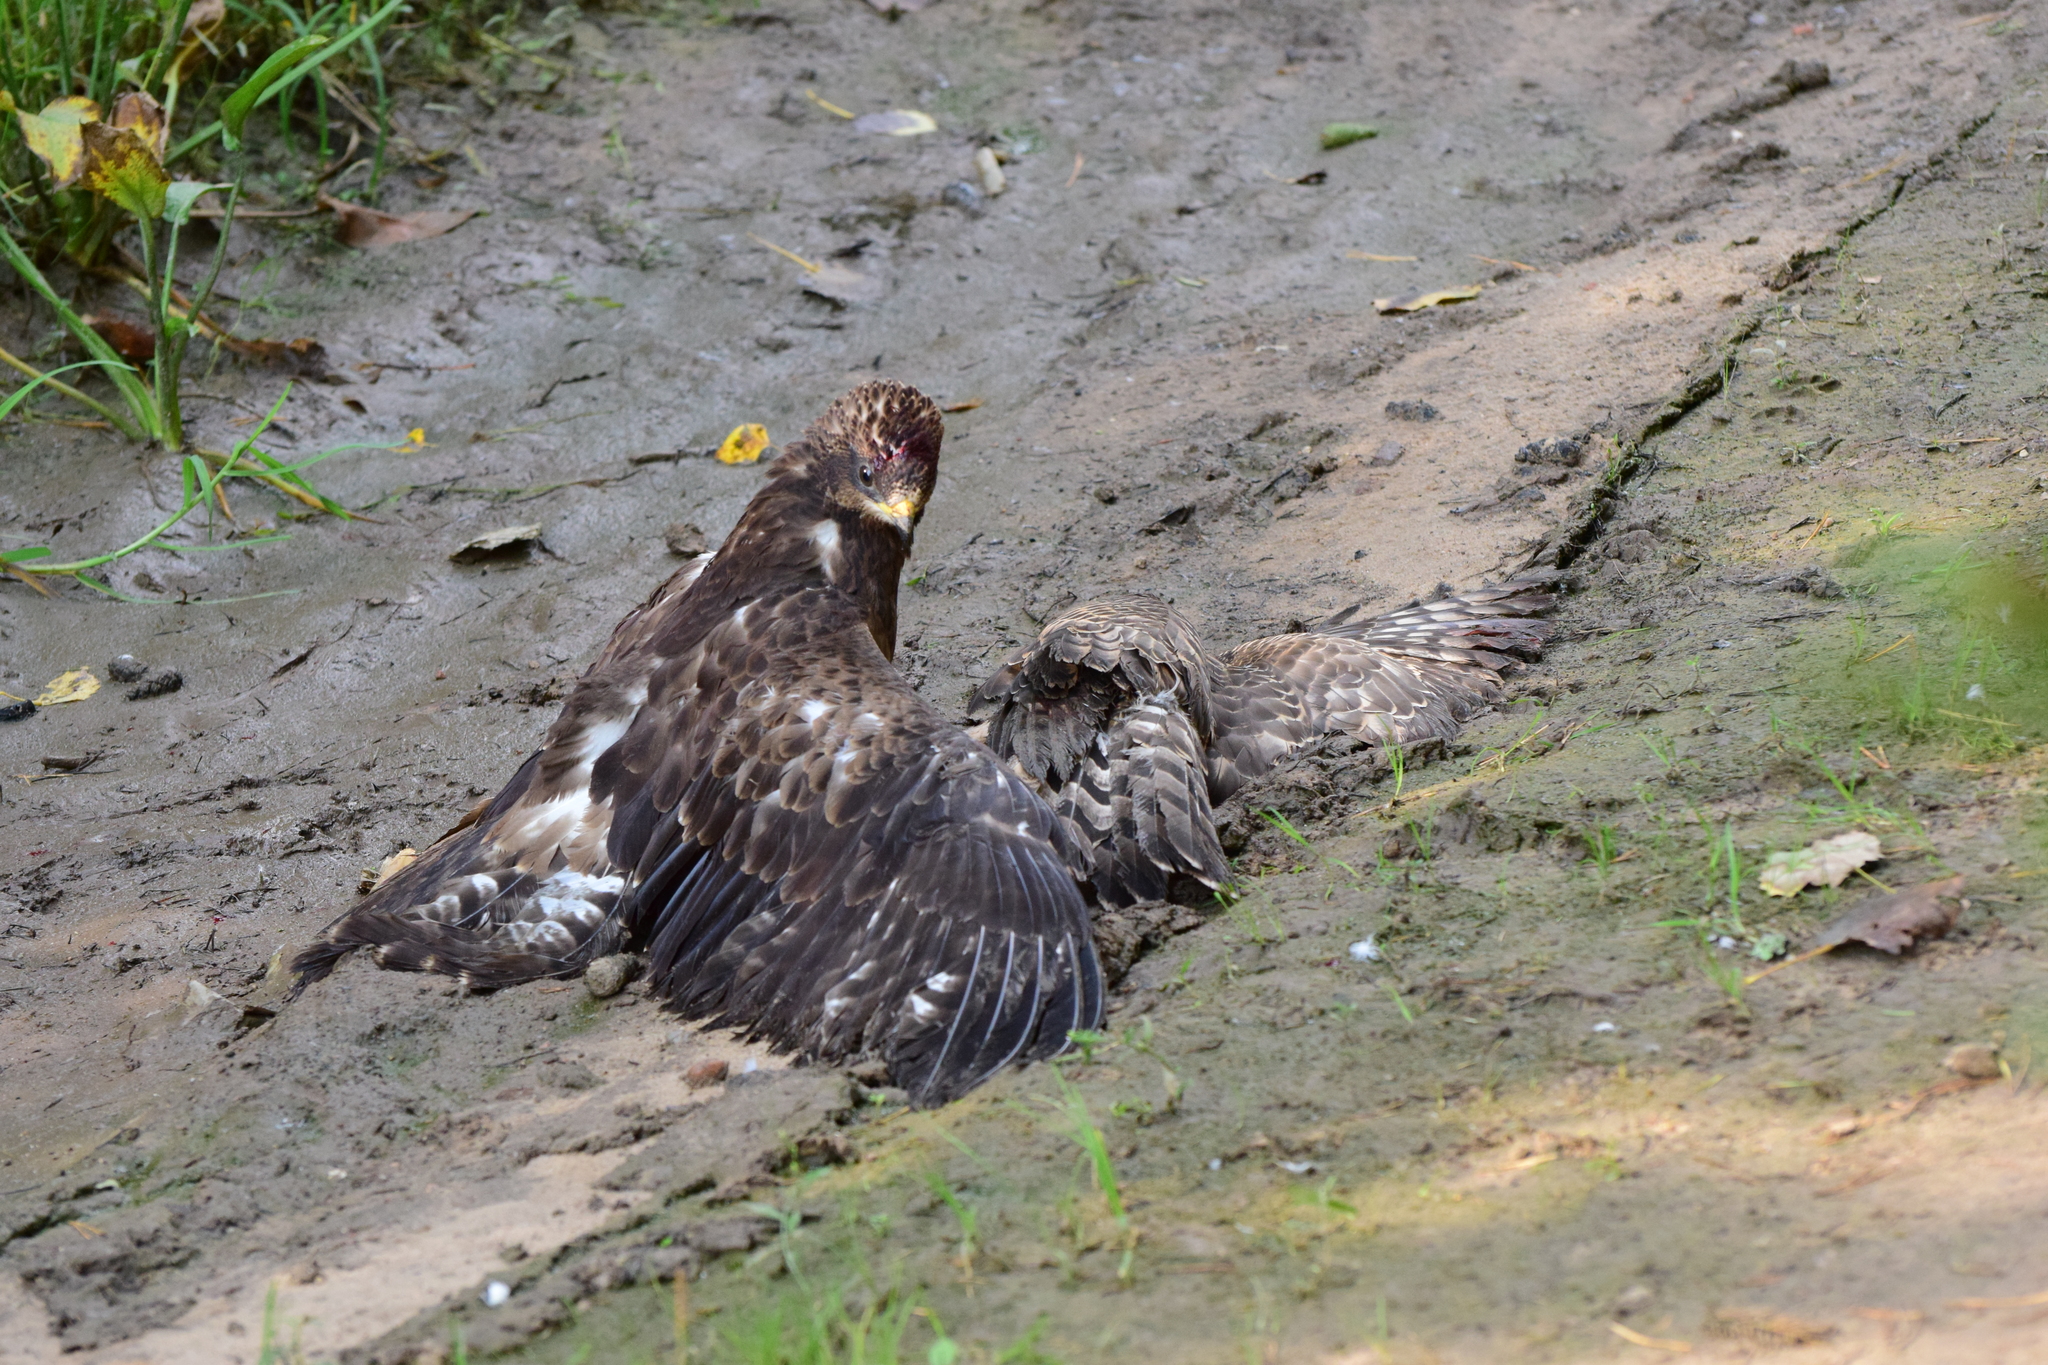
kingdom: Animalia
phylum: Chordata
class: Aves
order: Accipitriformes
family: Accipitridae
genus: Pernis
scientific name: Pernis apivorus
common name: European honey buzzard
